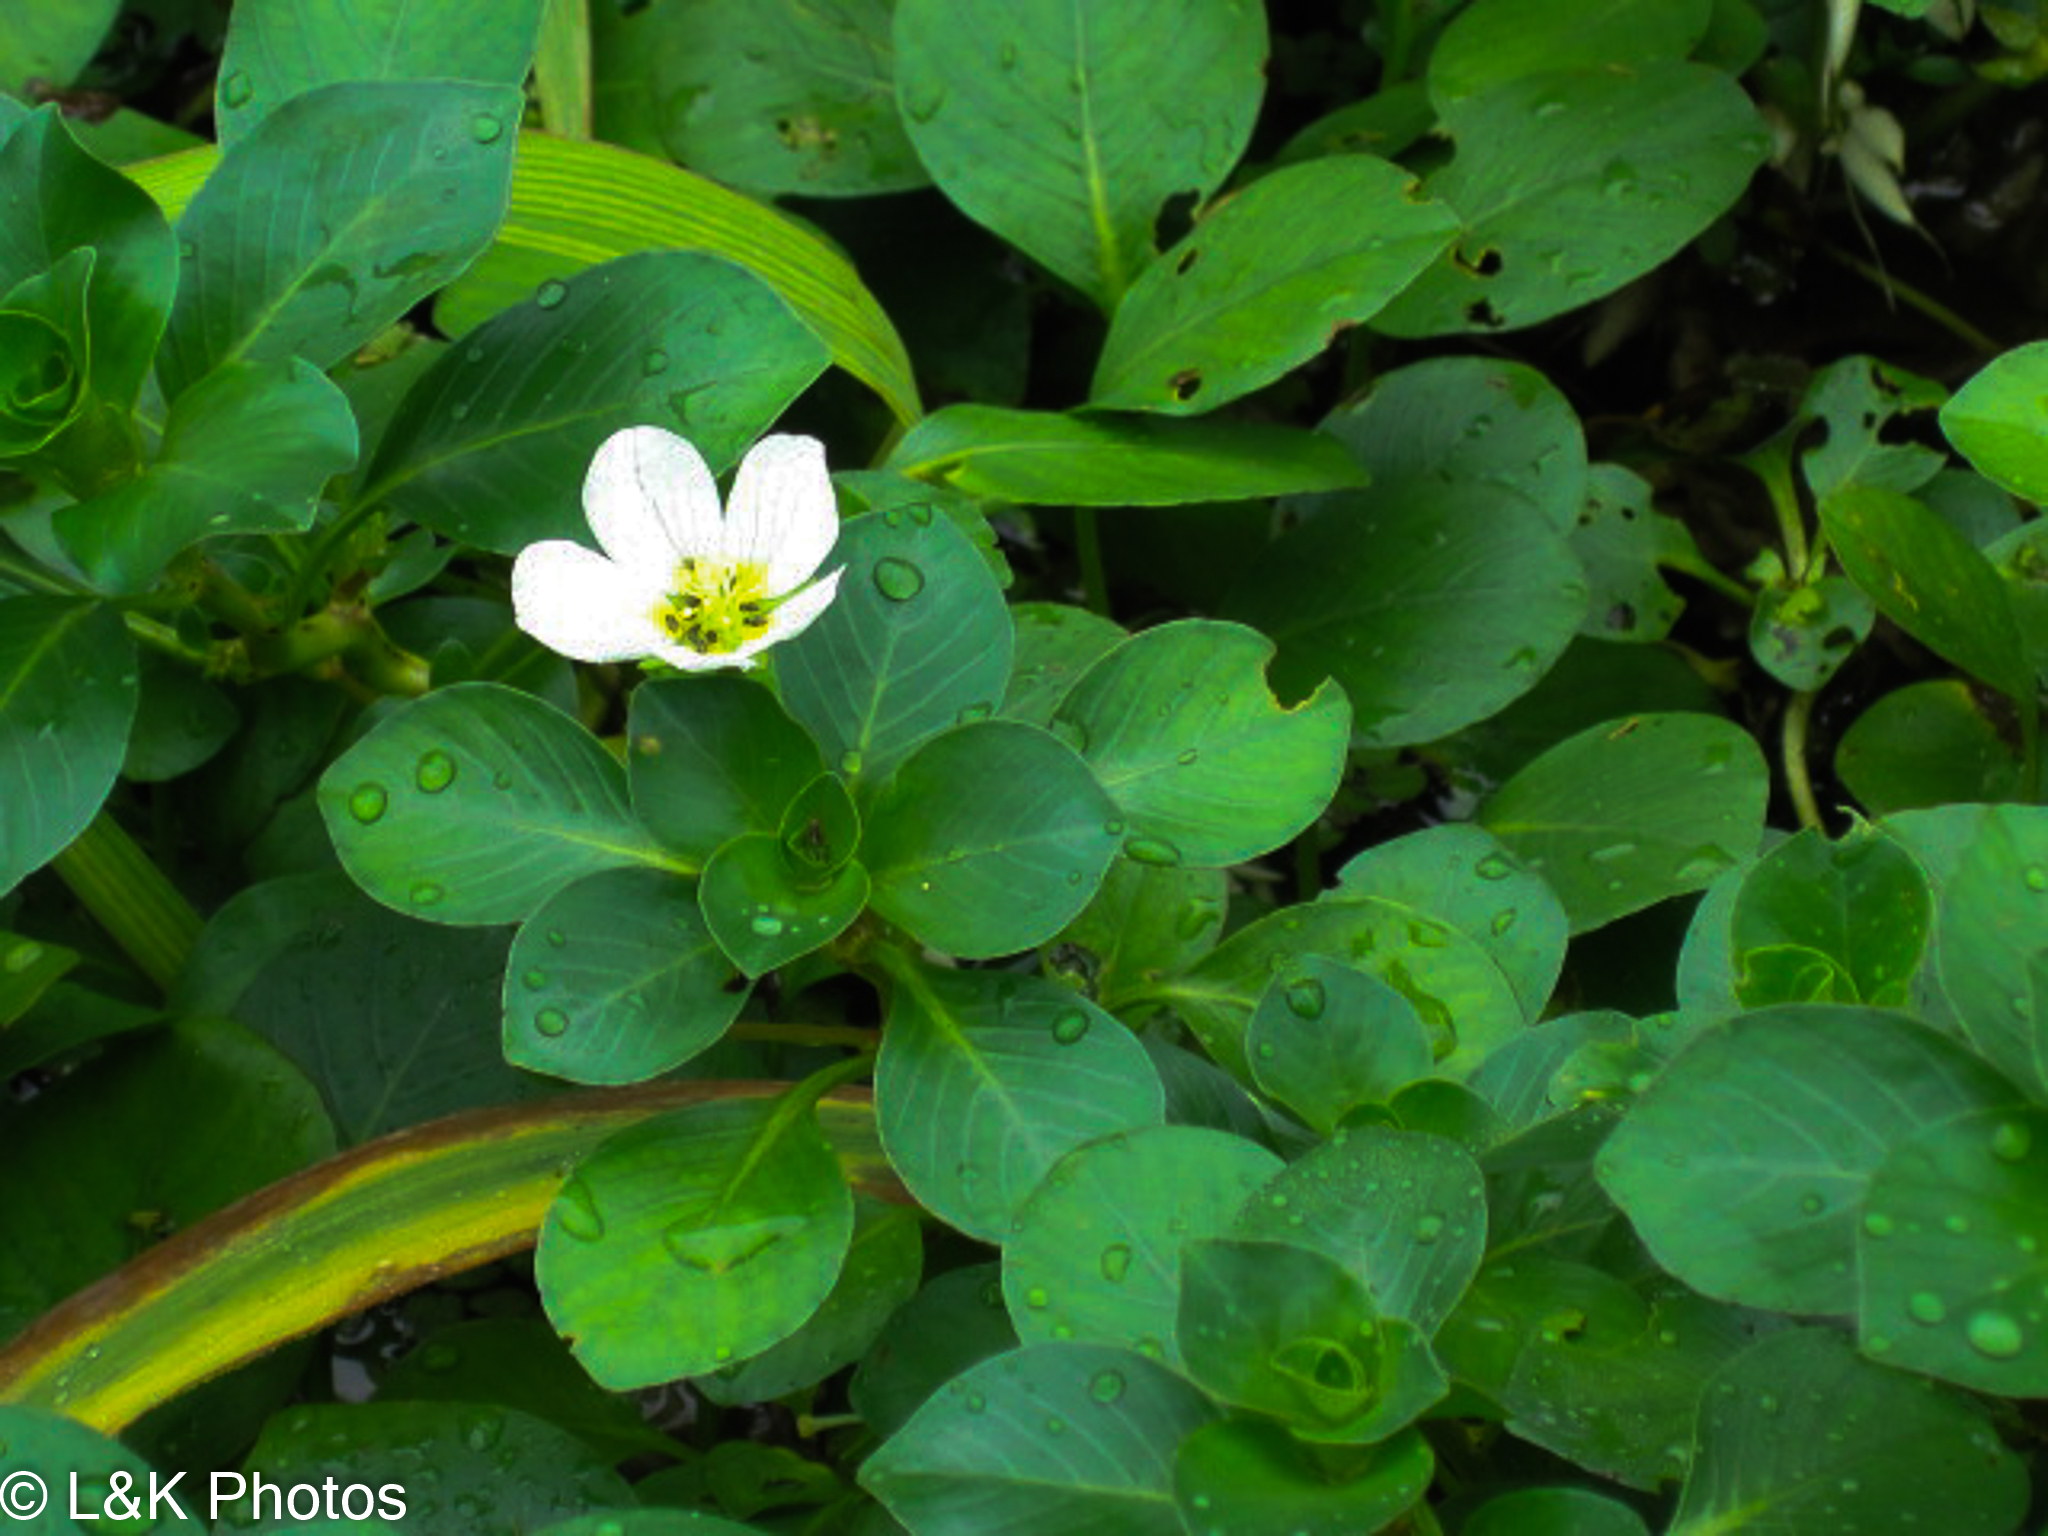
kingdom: Plantae
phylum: Tracheophyta
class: Magnoliopsida
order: Myrtales
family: Onagraceae
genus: Ludwigia
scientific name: Ludwigia helminthorrhiza
